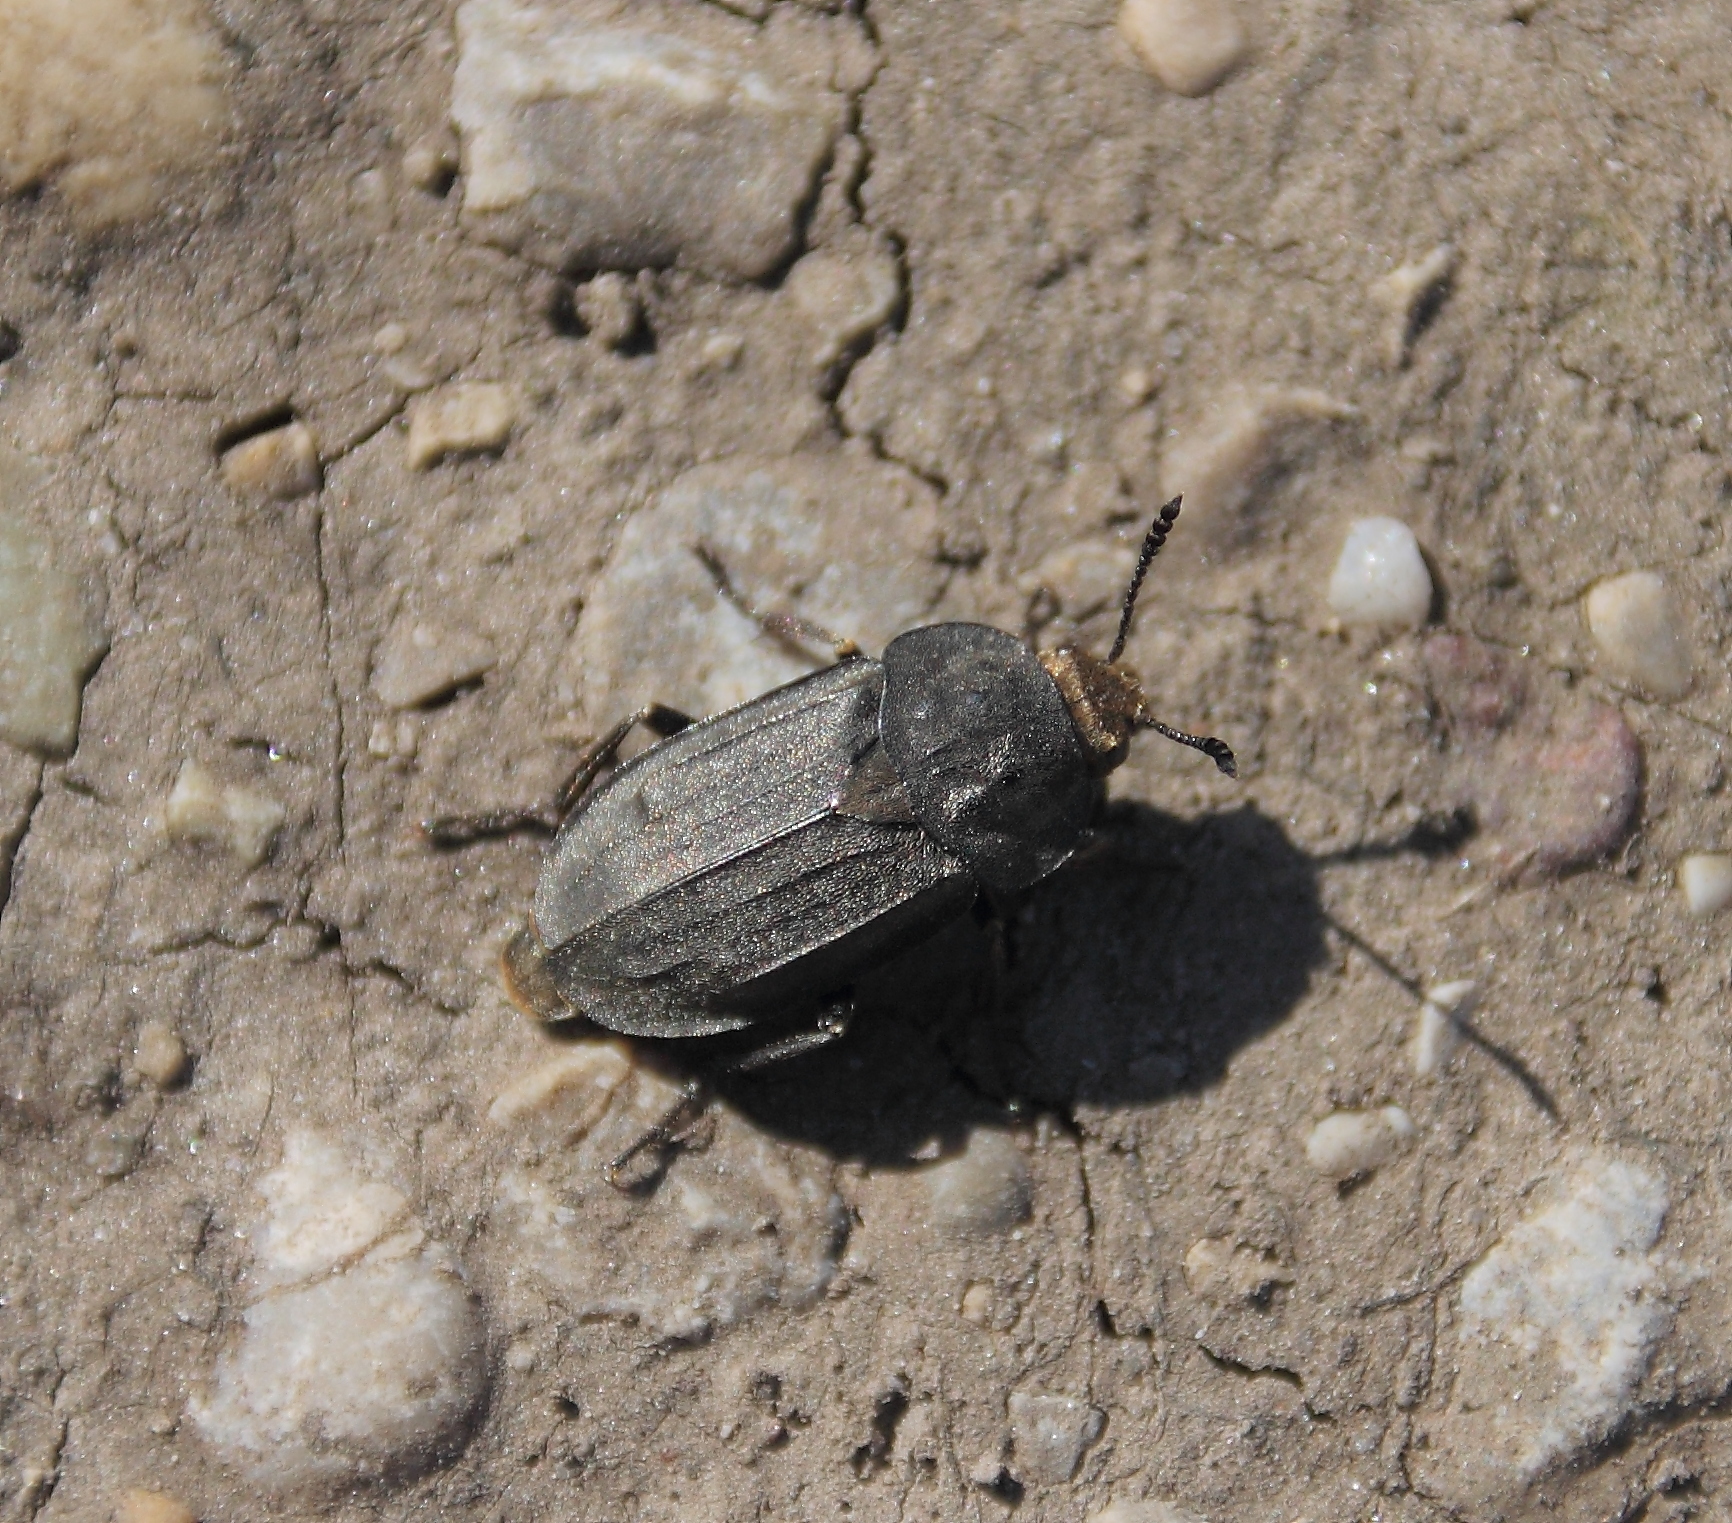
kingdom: Animalia
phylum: Arthropoda
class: Insecta
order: Coleoptera
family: Staphylinidae
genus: Aclypea
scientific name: Aclypea opaca
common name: Silphid beetle
